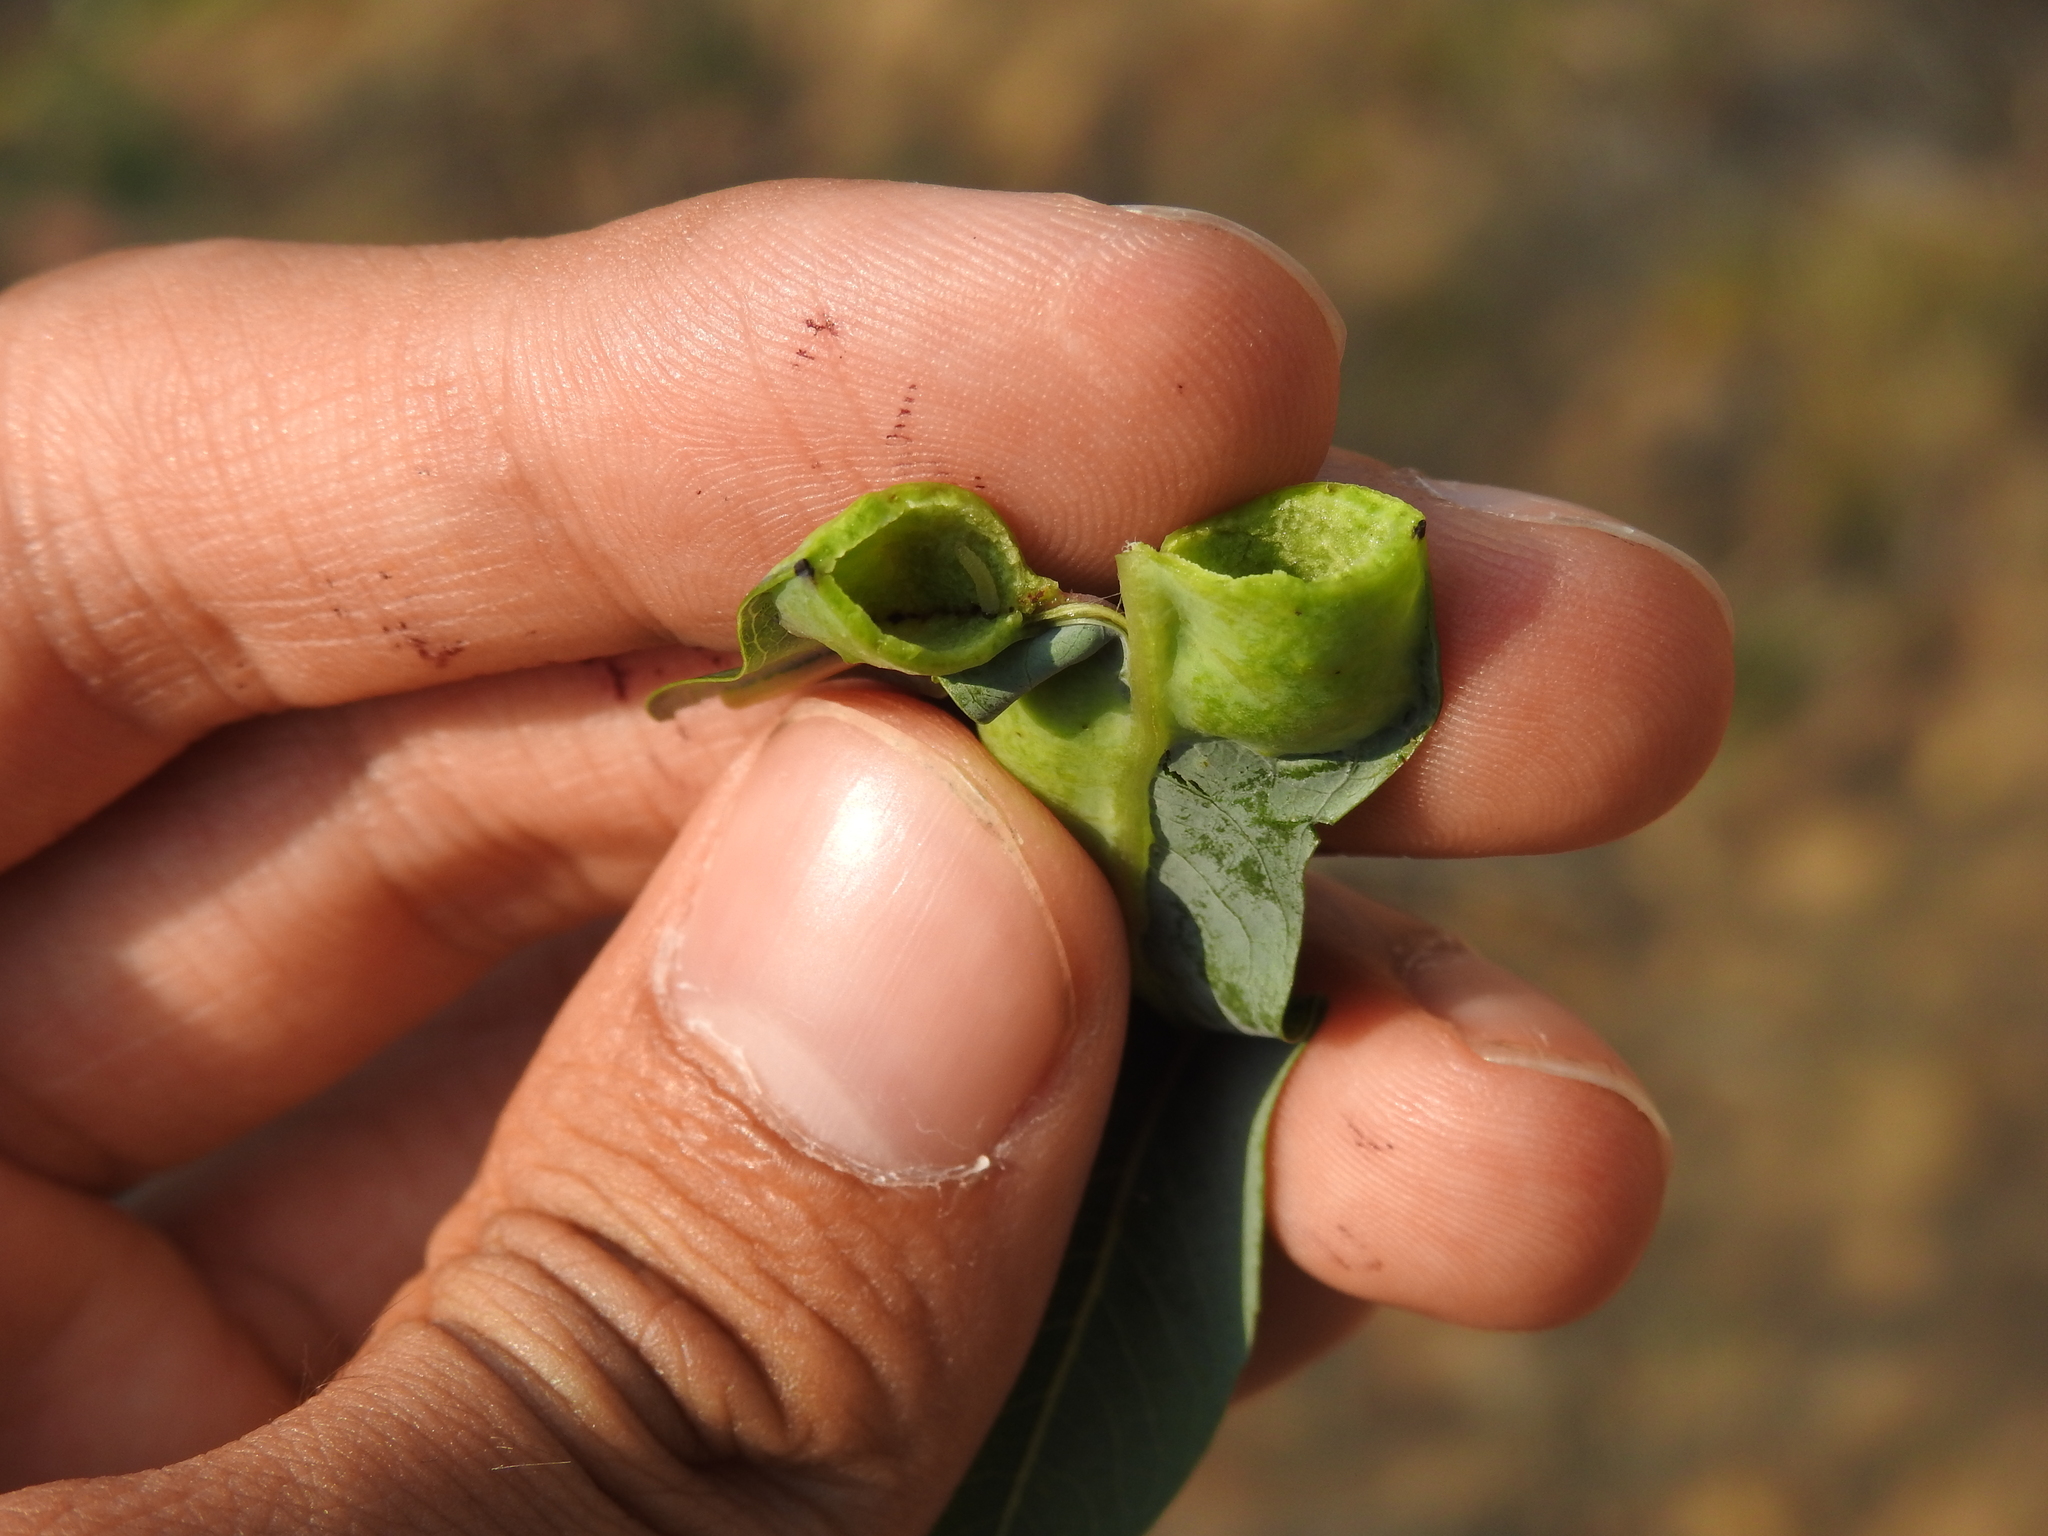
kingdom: Animalia
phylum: Arthropoda
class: Insecta
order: Hymenoptera
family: Tenthredinidae
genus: Pontania
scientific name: Pontania vesicator
